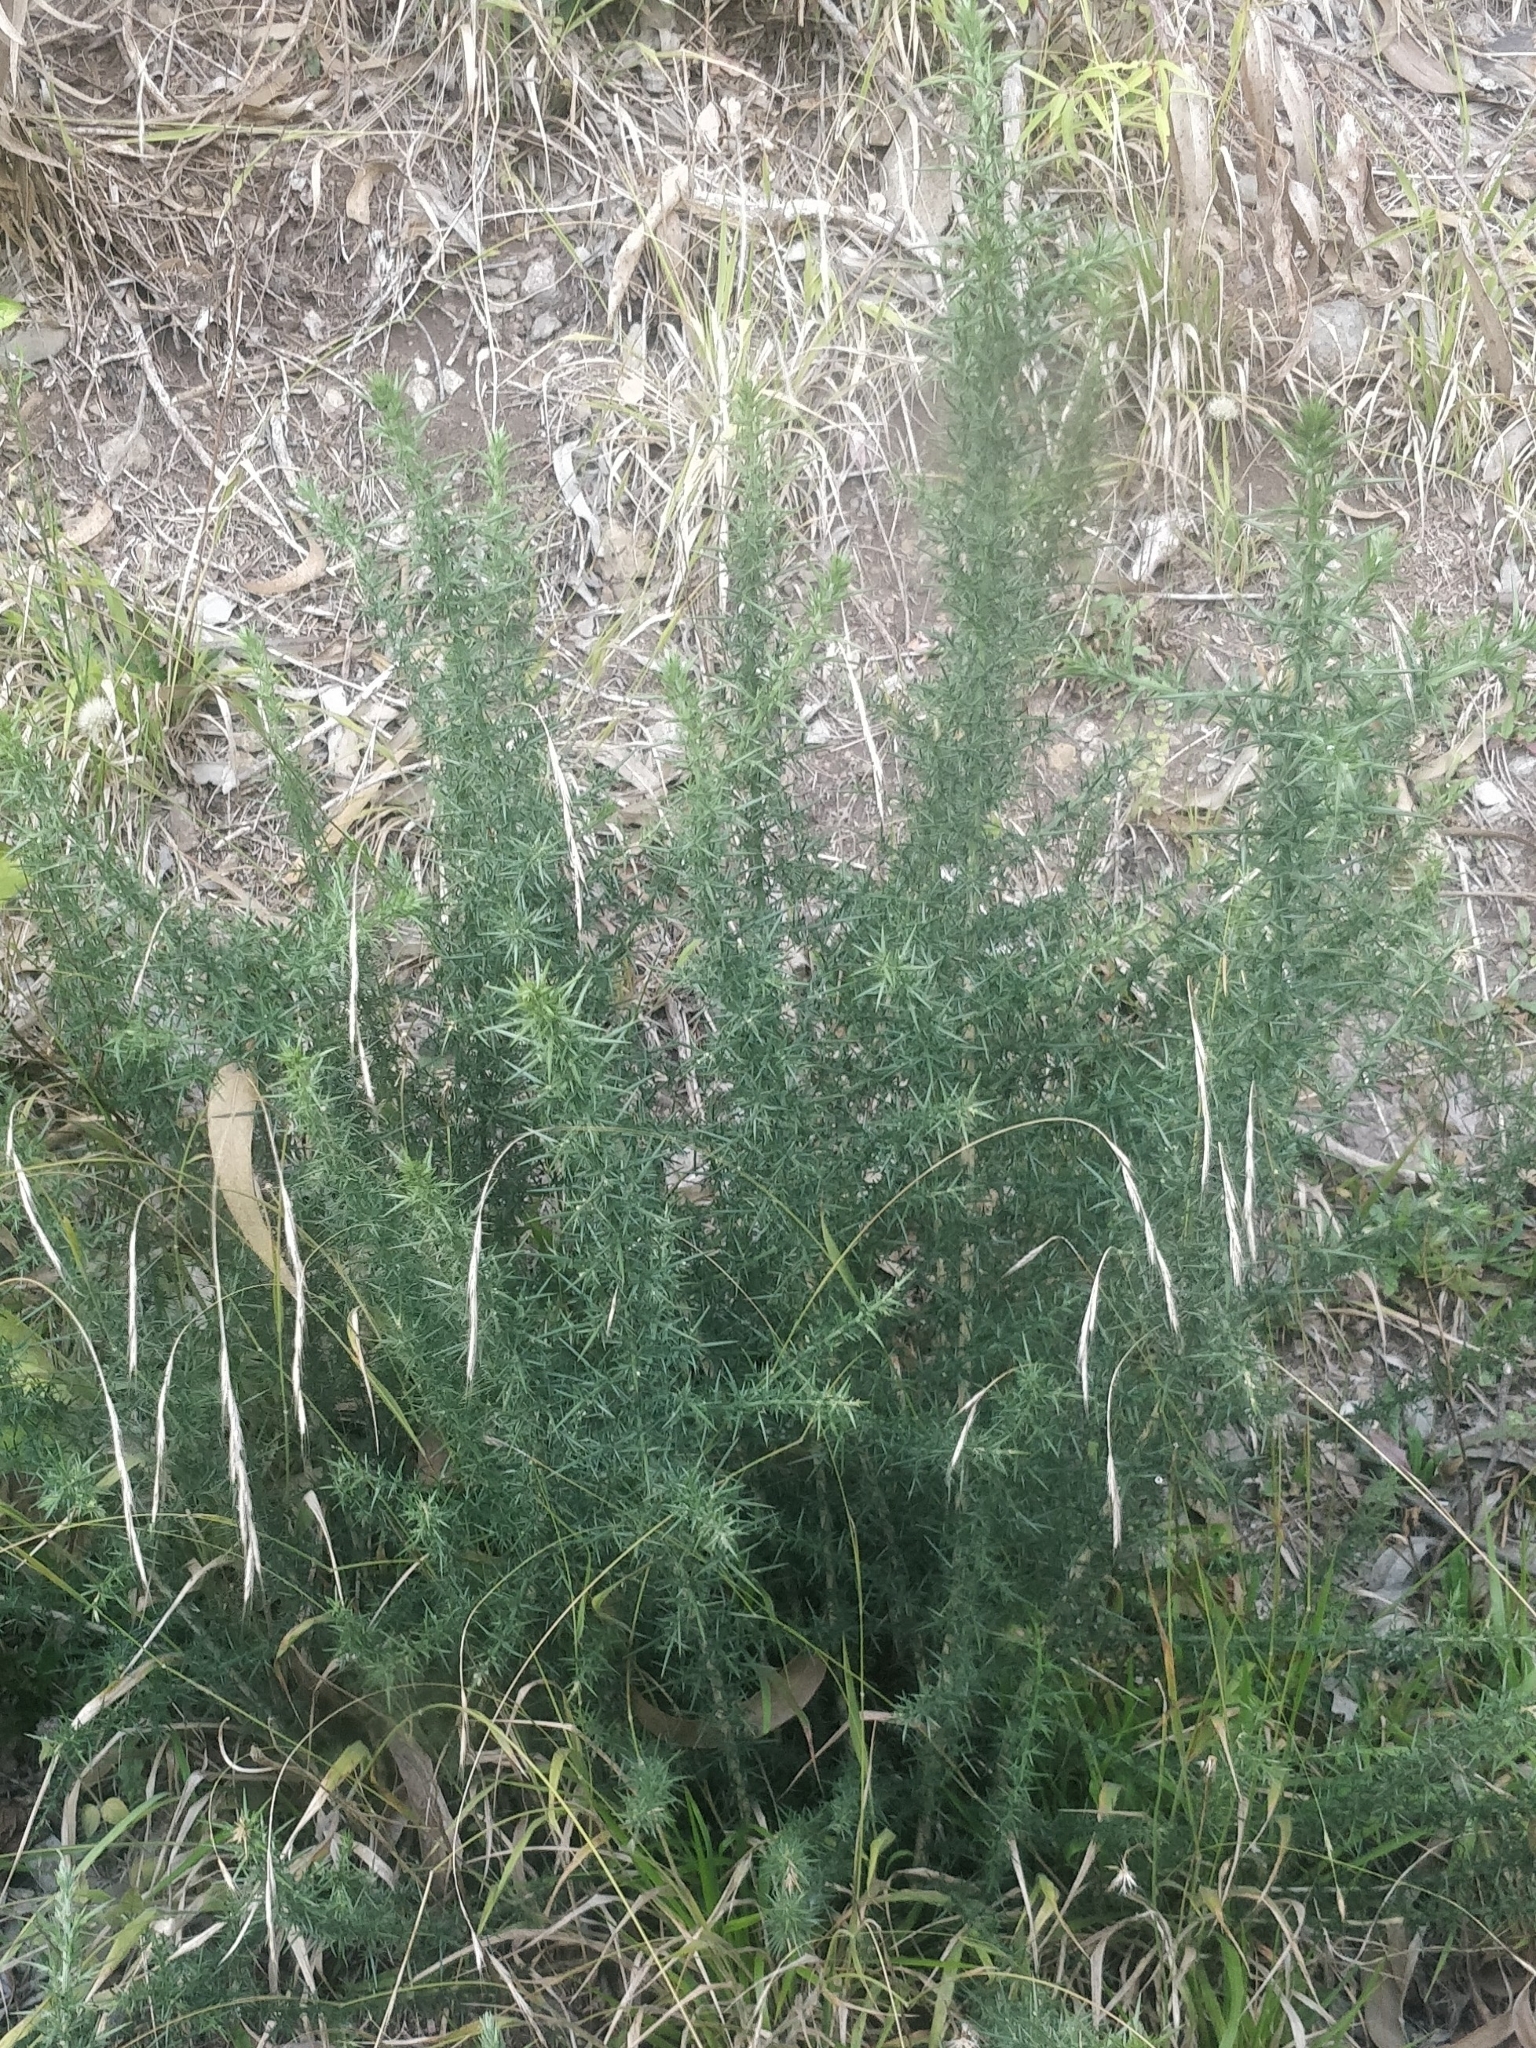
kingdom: Plantae
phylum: Tracheophyta
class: Magnoliopsida
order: Fabales
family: Fabaceae
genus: Ulex
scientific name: Ulex europaeus
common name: Common gorse
